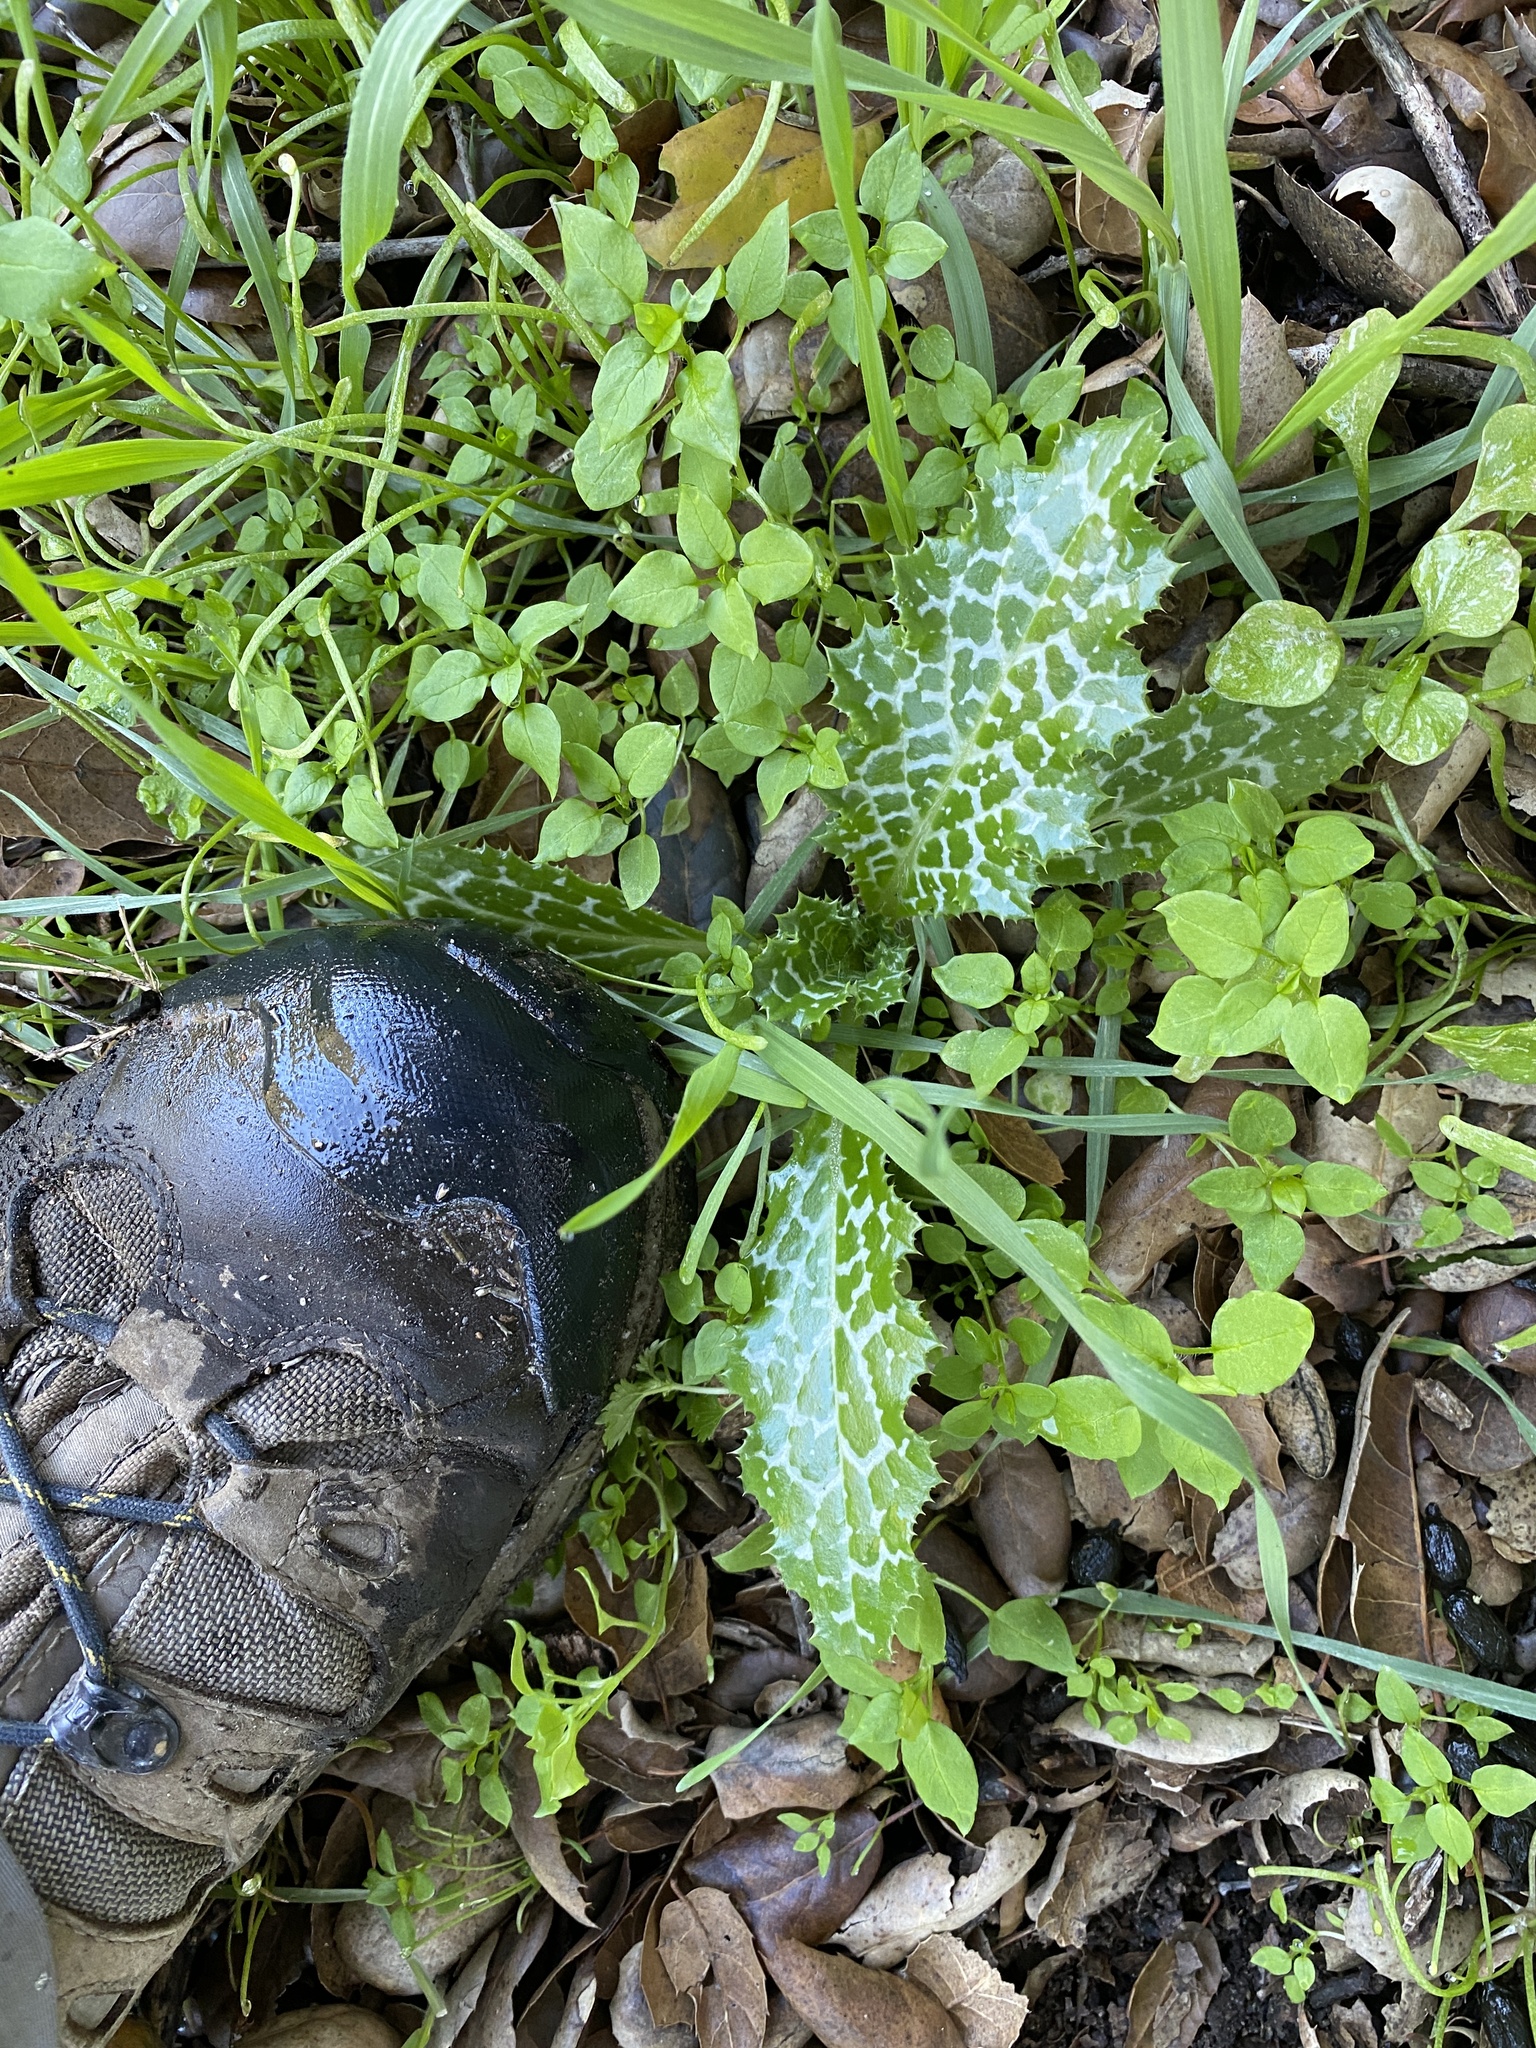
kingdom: Plantae
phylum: Tracheophyta
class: Magnoliopsida
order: Asterales
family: Asteraceae
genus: Silybum
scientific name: Silybum marianum
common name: Milk thistle
